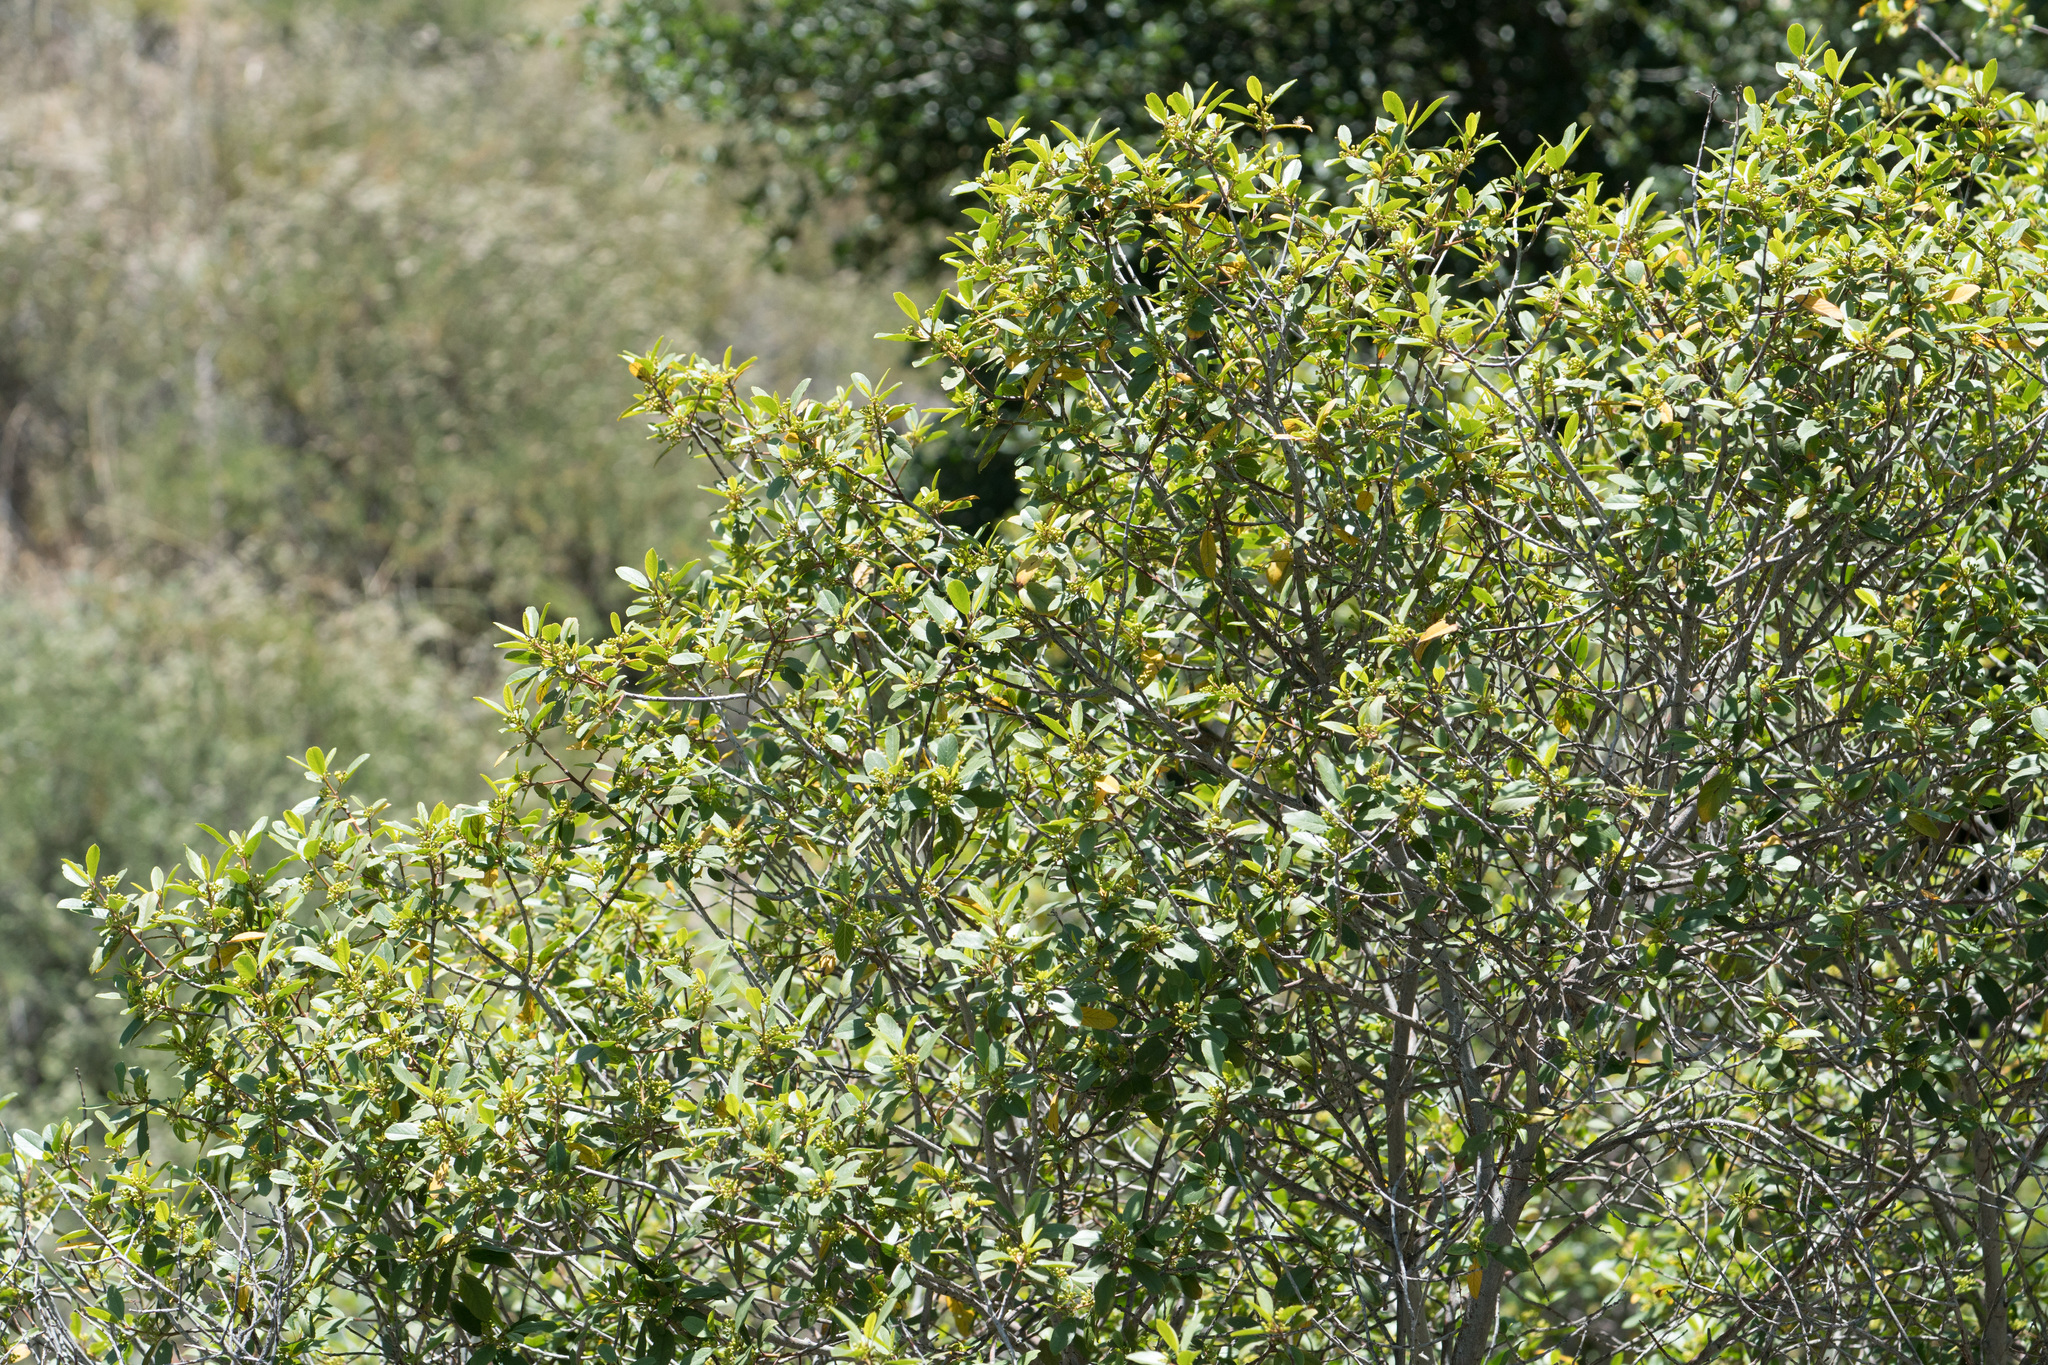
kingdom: Plantae
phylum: Tracheophyta
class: Magnoliopsida
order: Rosales
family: Rhamnaceae
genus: Frangula
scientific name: Frangula californica
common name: California buckthorn
